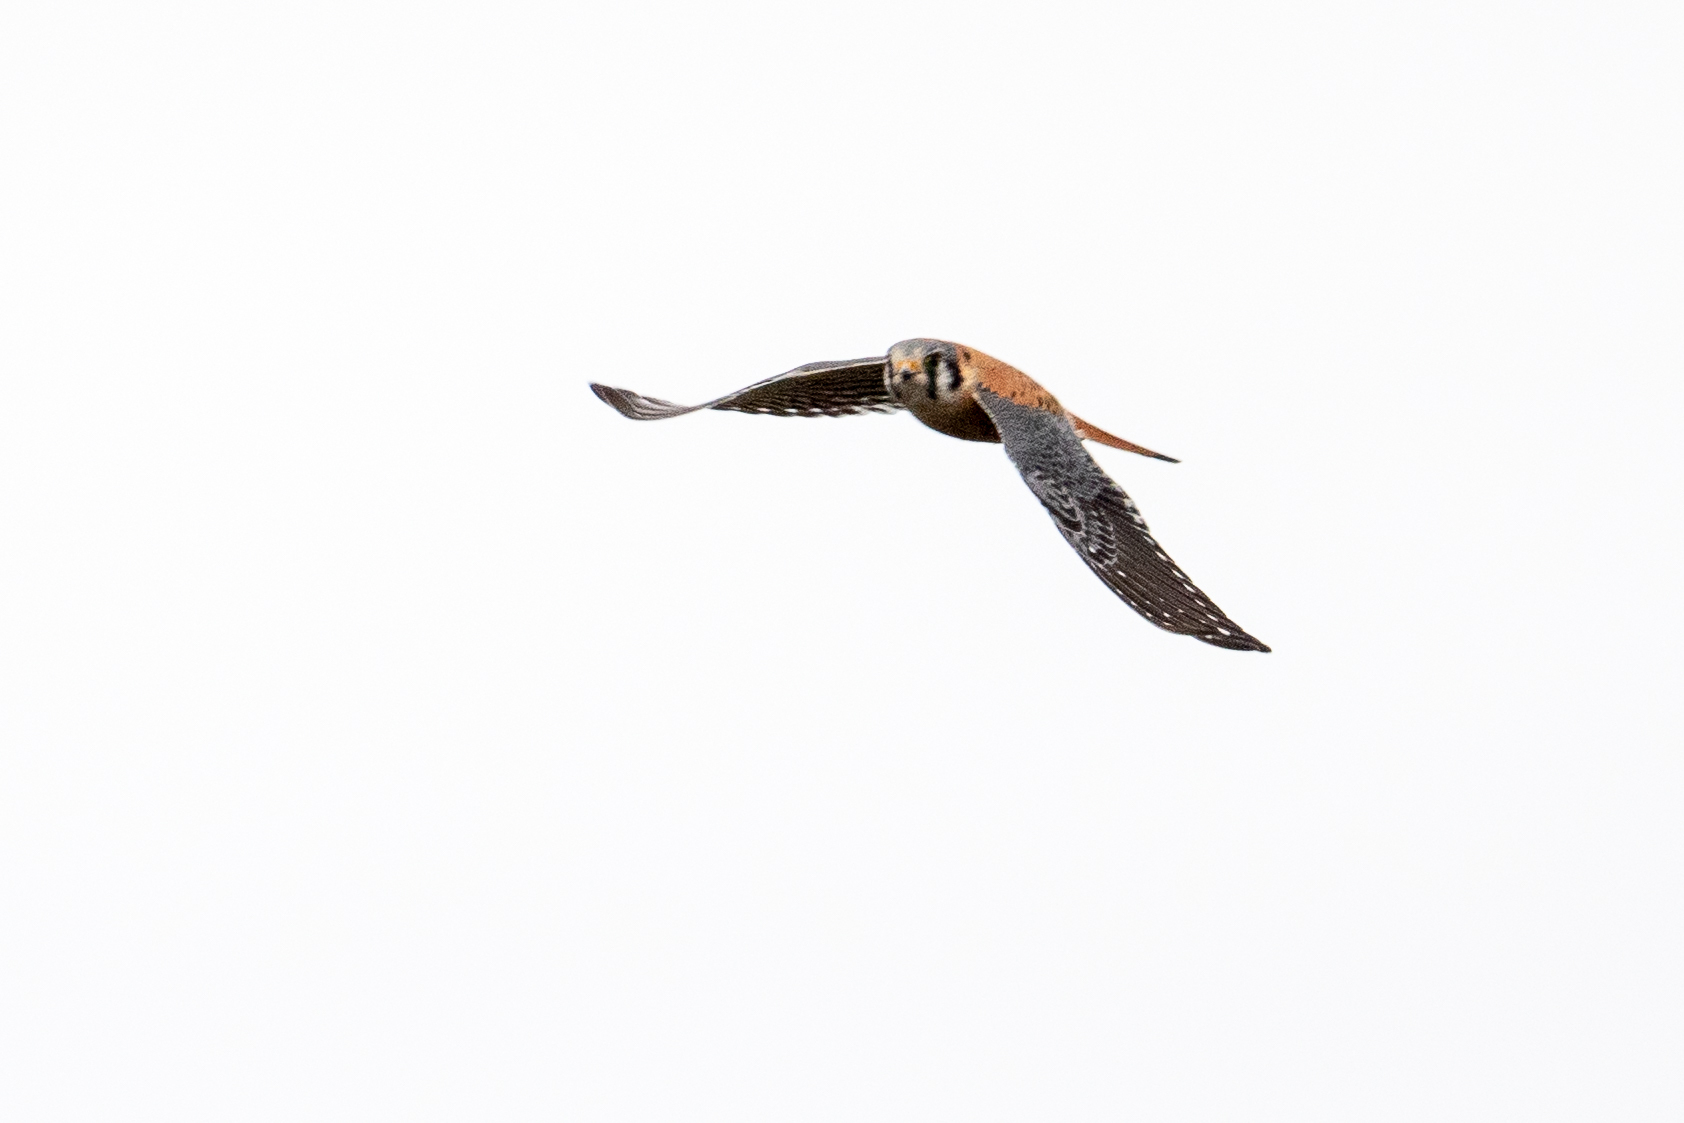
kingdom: Animalia
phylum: Chordata
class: Aves
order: Falconiformes
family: Falconidae
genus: Falco
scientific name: Falco sparverius
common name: American kestrel
